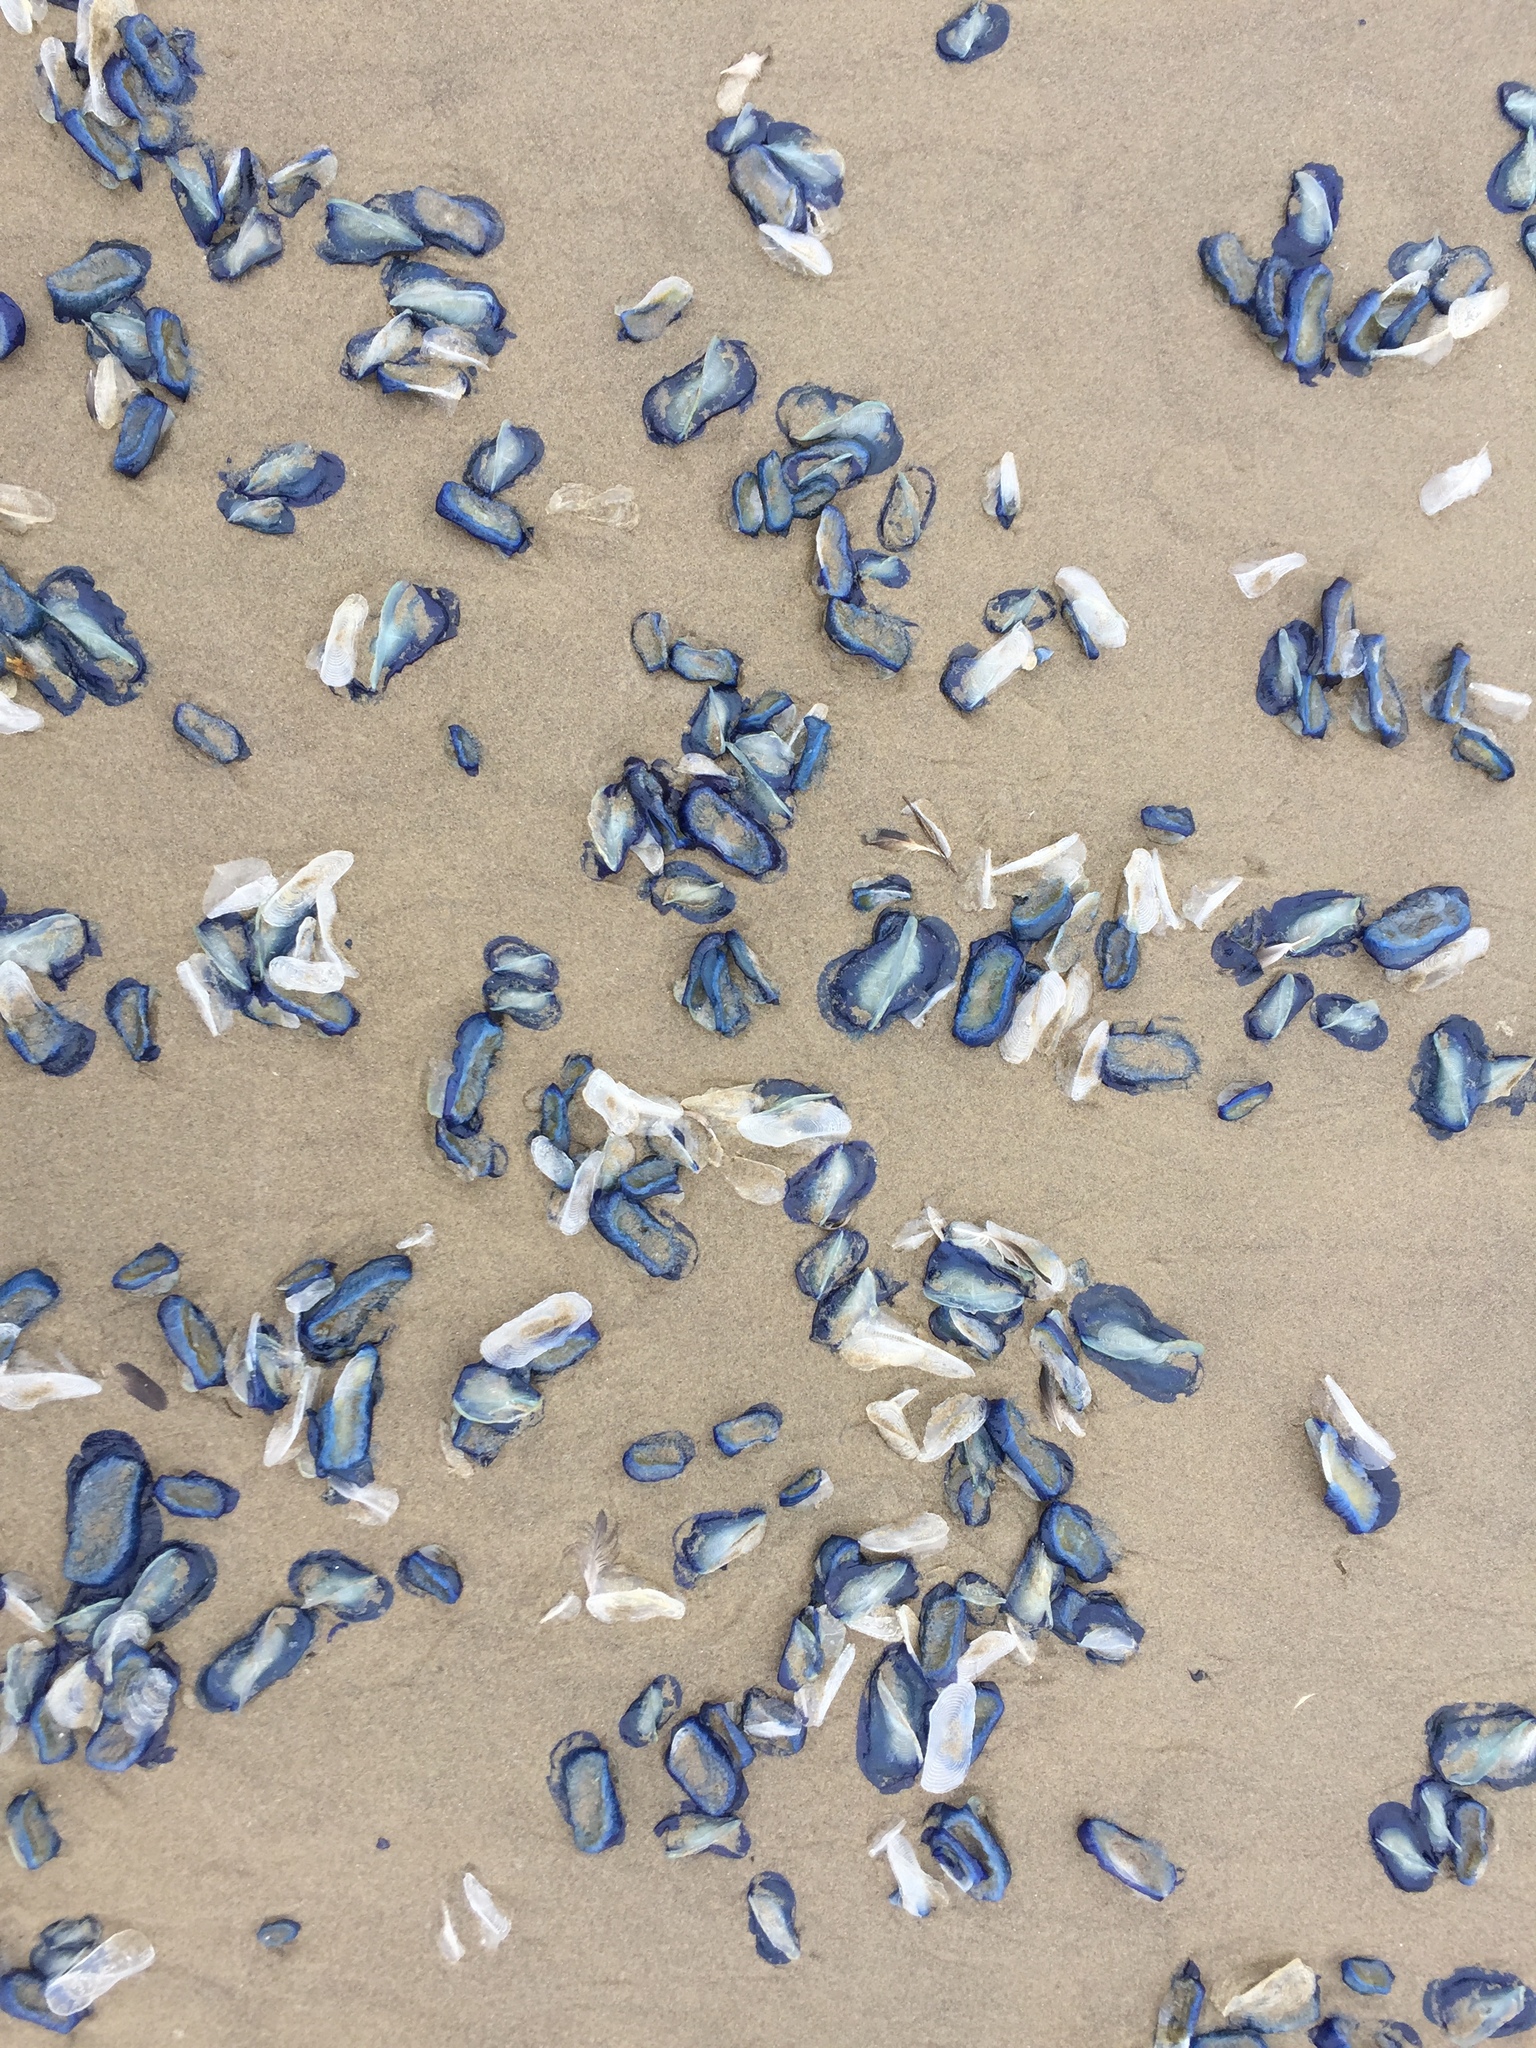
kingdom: Animalia
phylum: Cnidaria
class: Hydrozoa
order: Anthoathecata
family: Porpitidae
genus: Velella
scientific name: Velella velella
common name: By-the-wind-sailor
